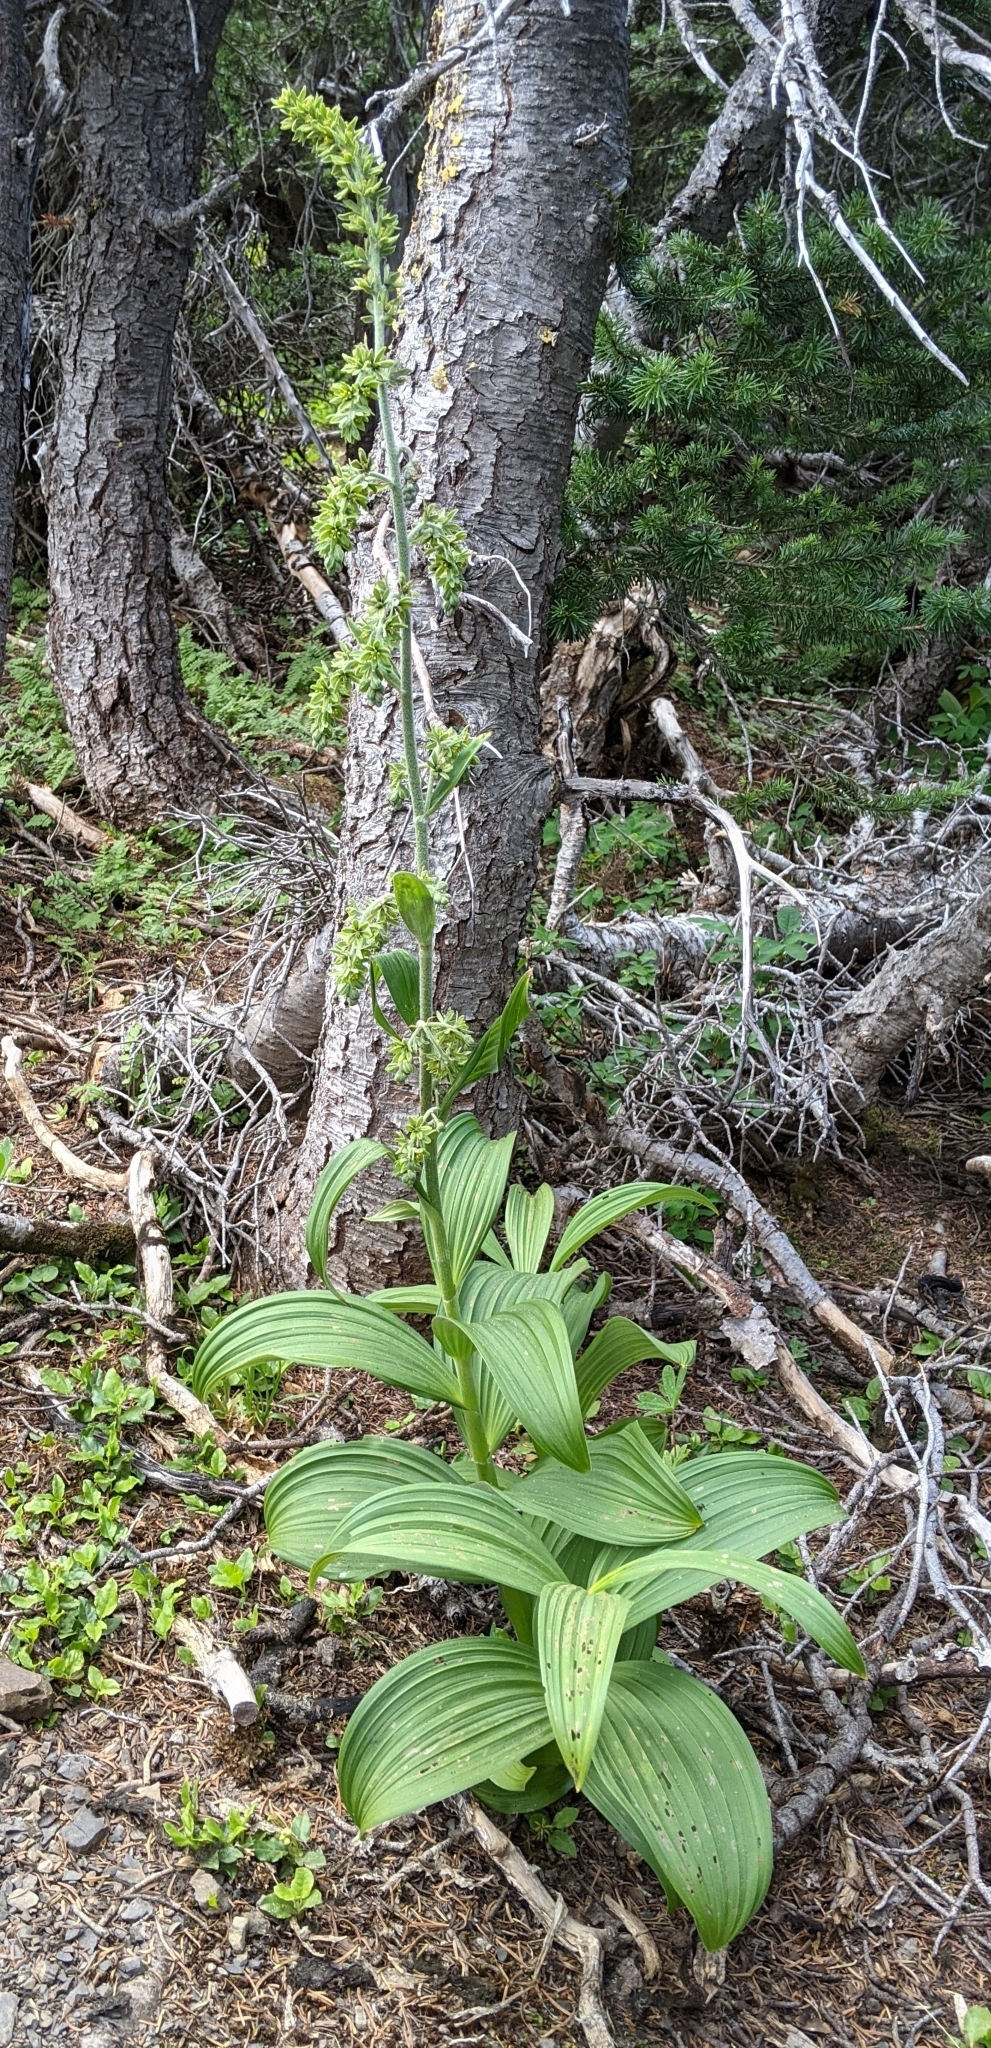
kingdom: Plantae
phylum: Tracheophyta
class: Liliopsida
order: Liliales
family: Melanthiaceae
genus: Veratrum
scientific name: Veratrum viride
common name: American false hellebore
